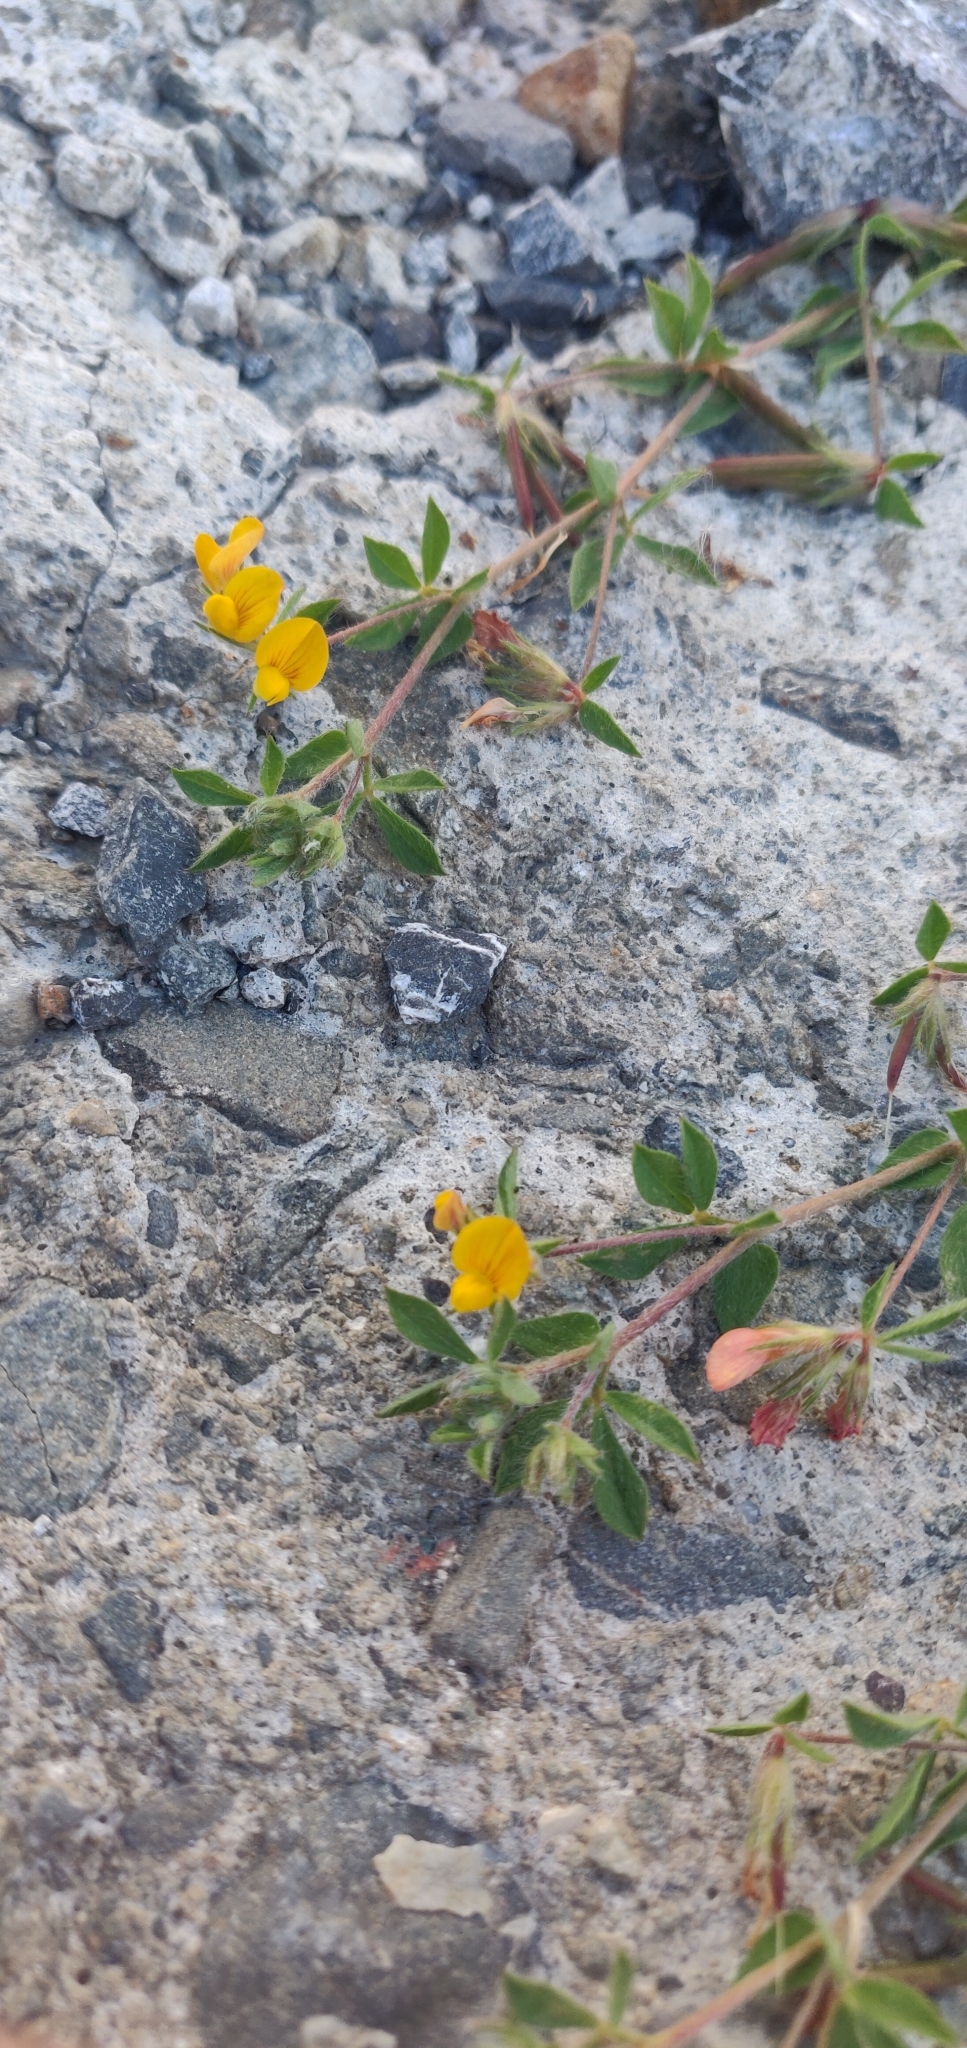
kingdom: Plantae
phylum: Tracheophyta
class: Magnoliopsida
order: Fabales
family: Fabaceae
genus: Lotus
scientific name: Lotus subbiflorus
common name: Hairy bird's-foot trefoil
